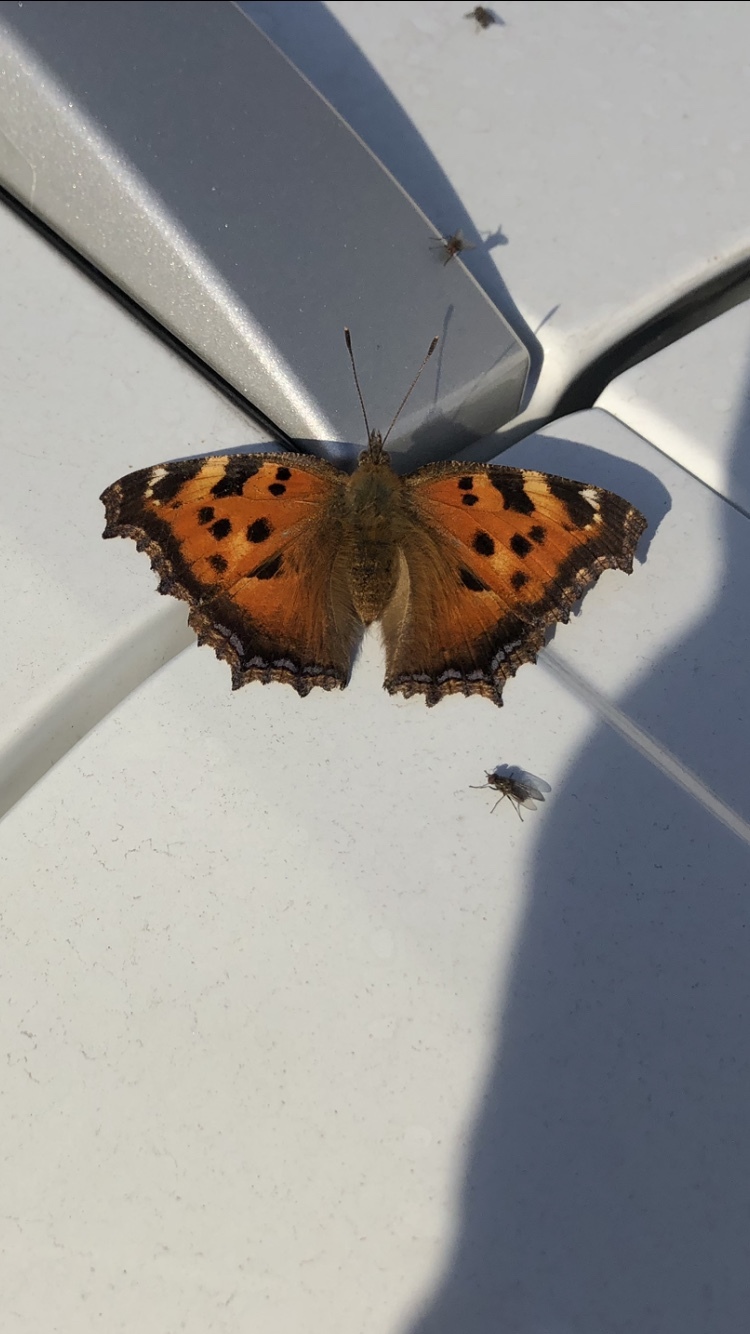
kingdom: Animalia
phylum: Arthropoda
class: Insecta
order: Lepidoptera
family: Nymphalidae
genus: Nymphalis
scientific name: Nymphalis xanthomelas
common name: Scarce tortoiseshell
